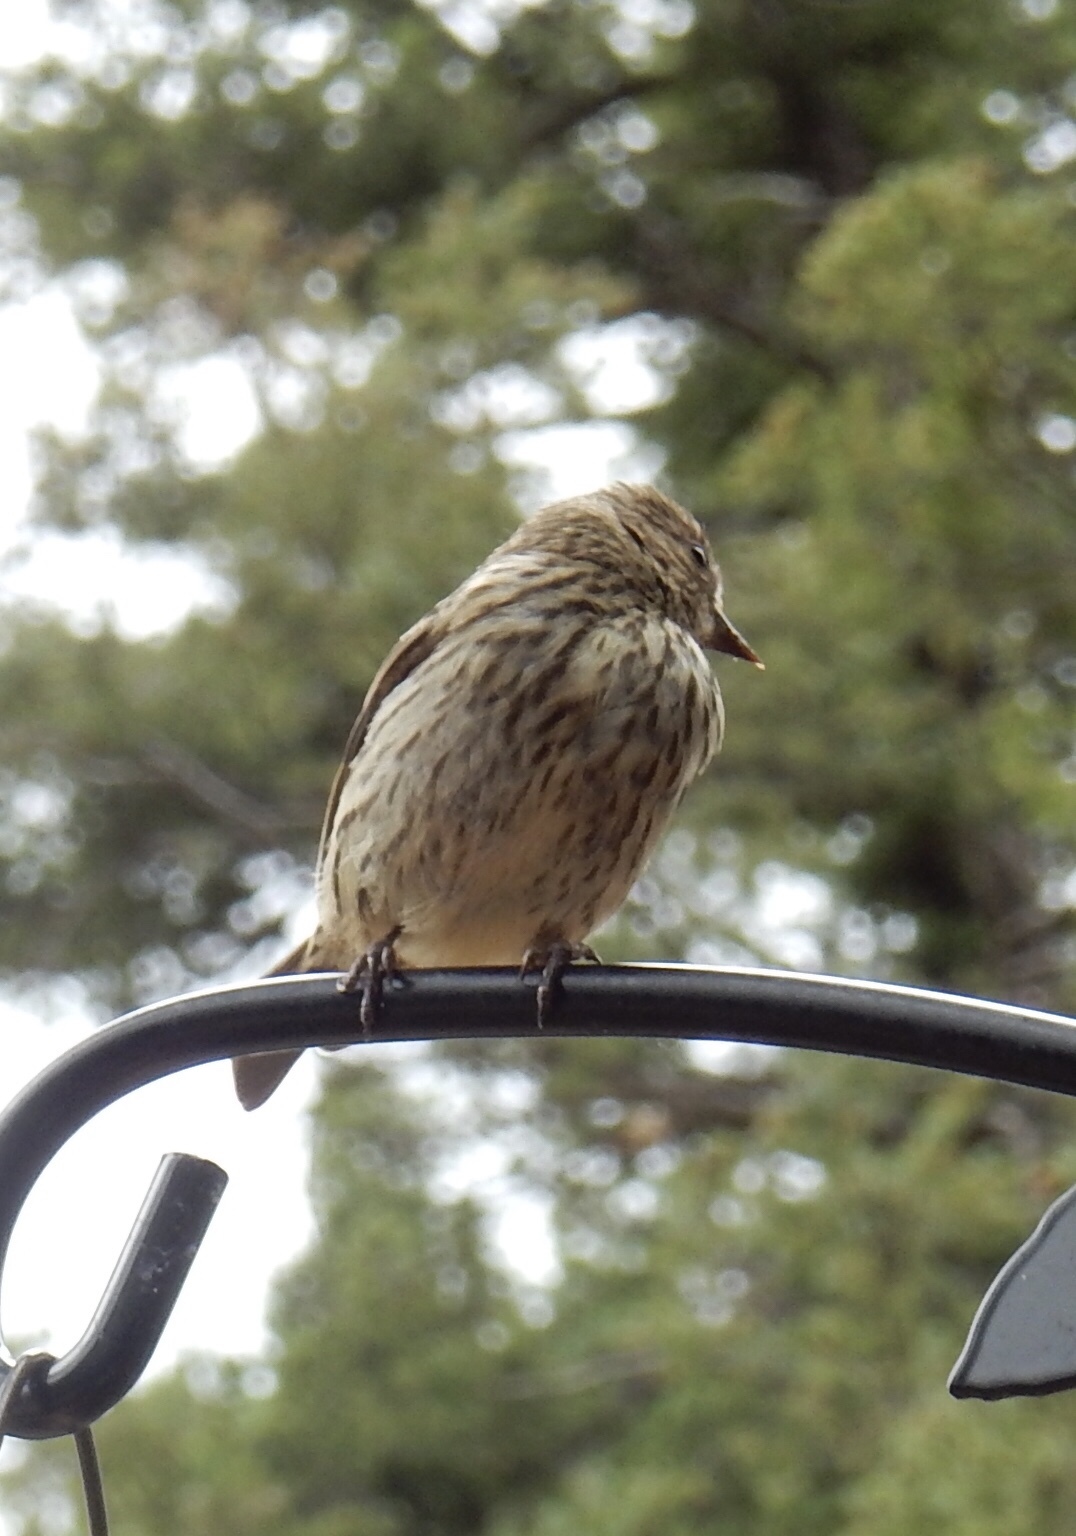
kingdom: Animalia
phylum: Chordata
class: Aves
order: Passeriformes
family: Fringillidae
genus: Spinus
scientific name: Spinus pinus
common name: Pine siskin
